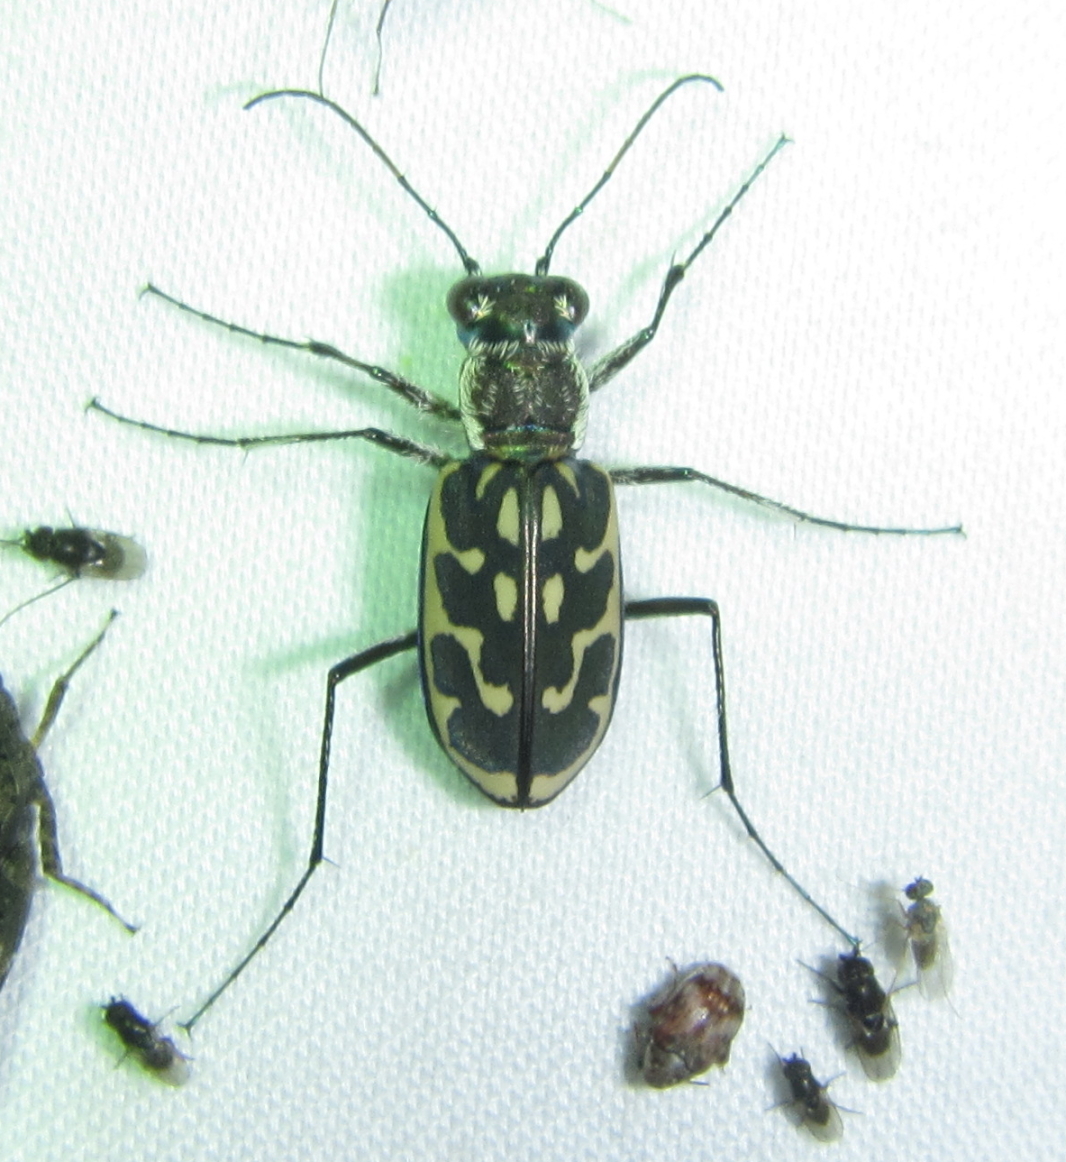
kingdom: Animalia
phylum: Arthropoda
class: Insecta
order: Coleoptera
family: Carabidae
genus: Lophyra
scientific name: Lophyra reliqua
